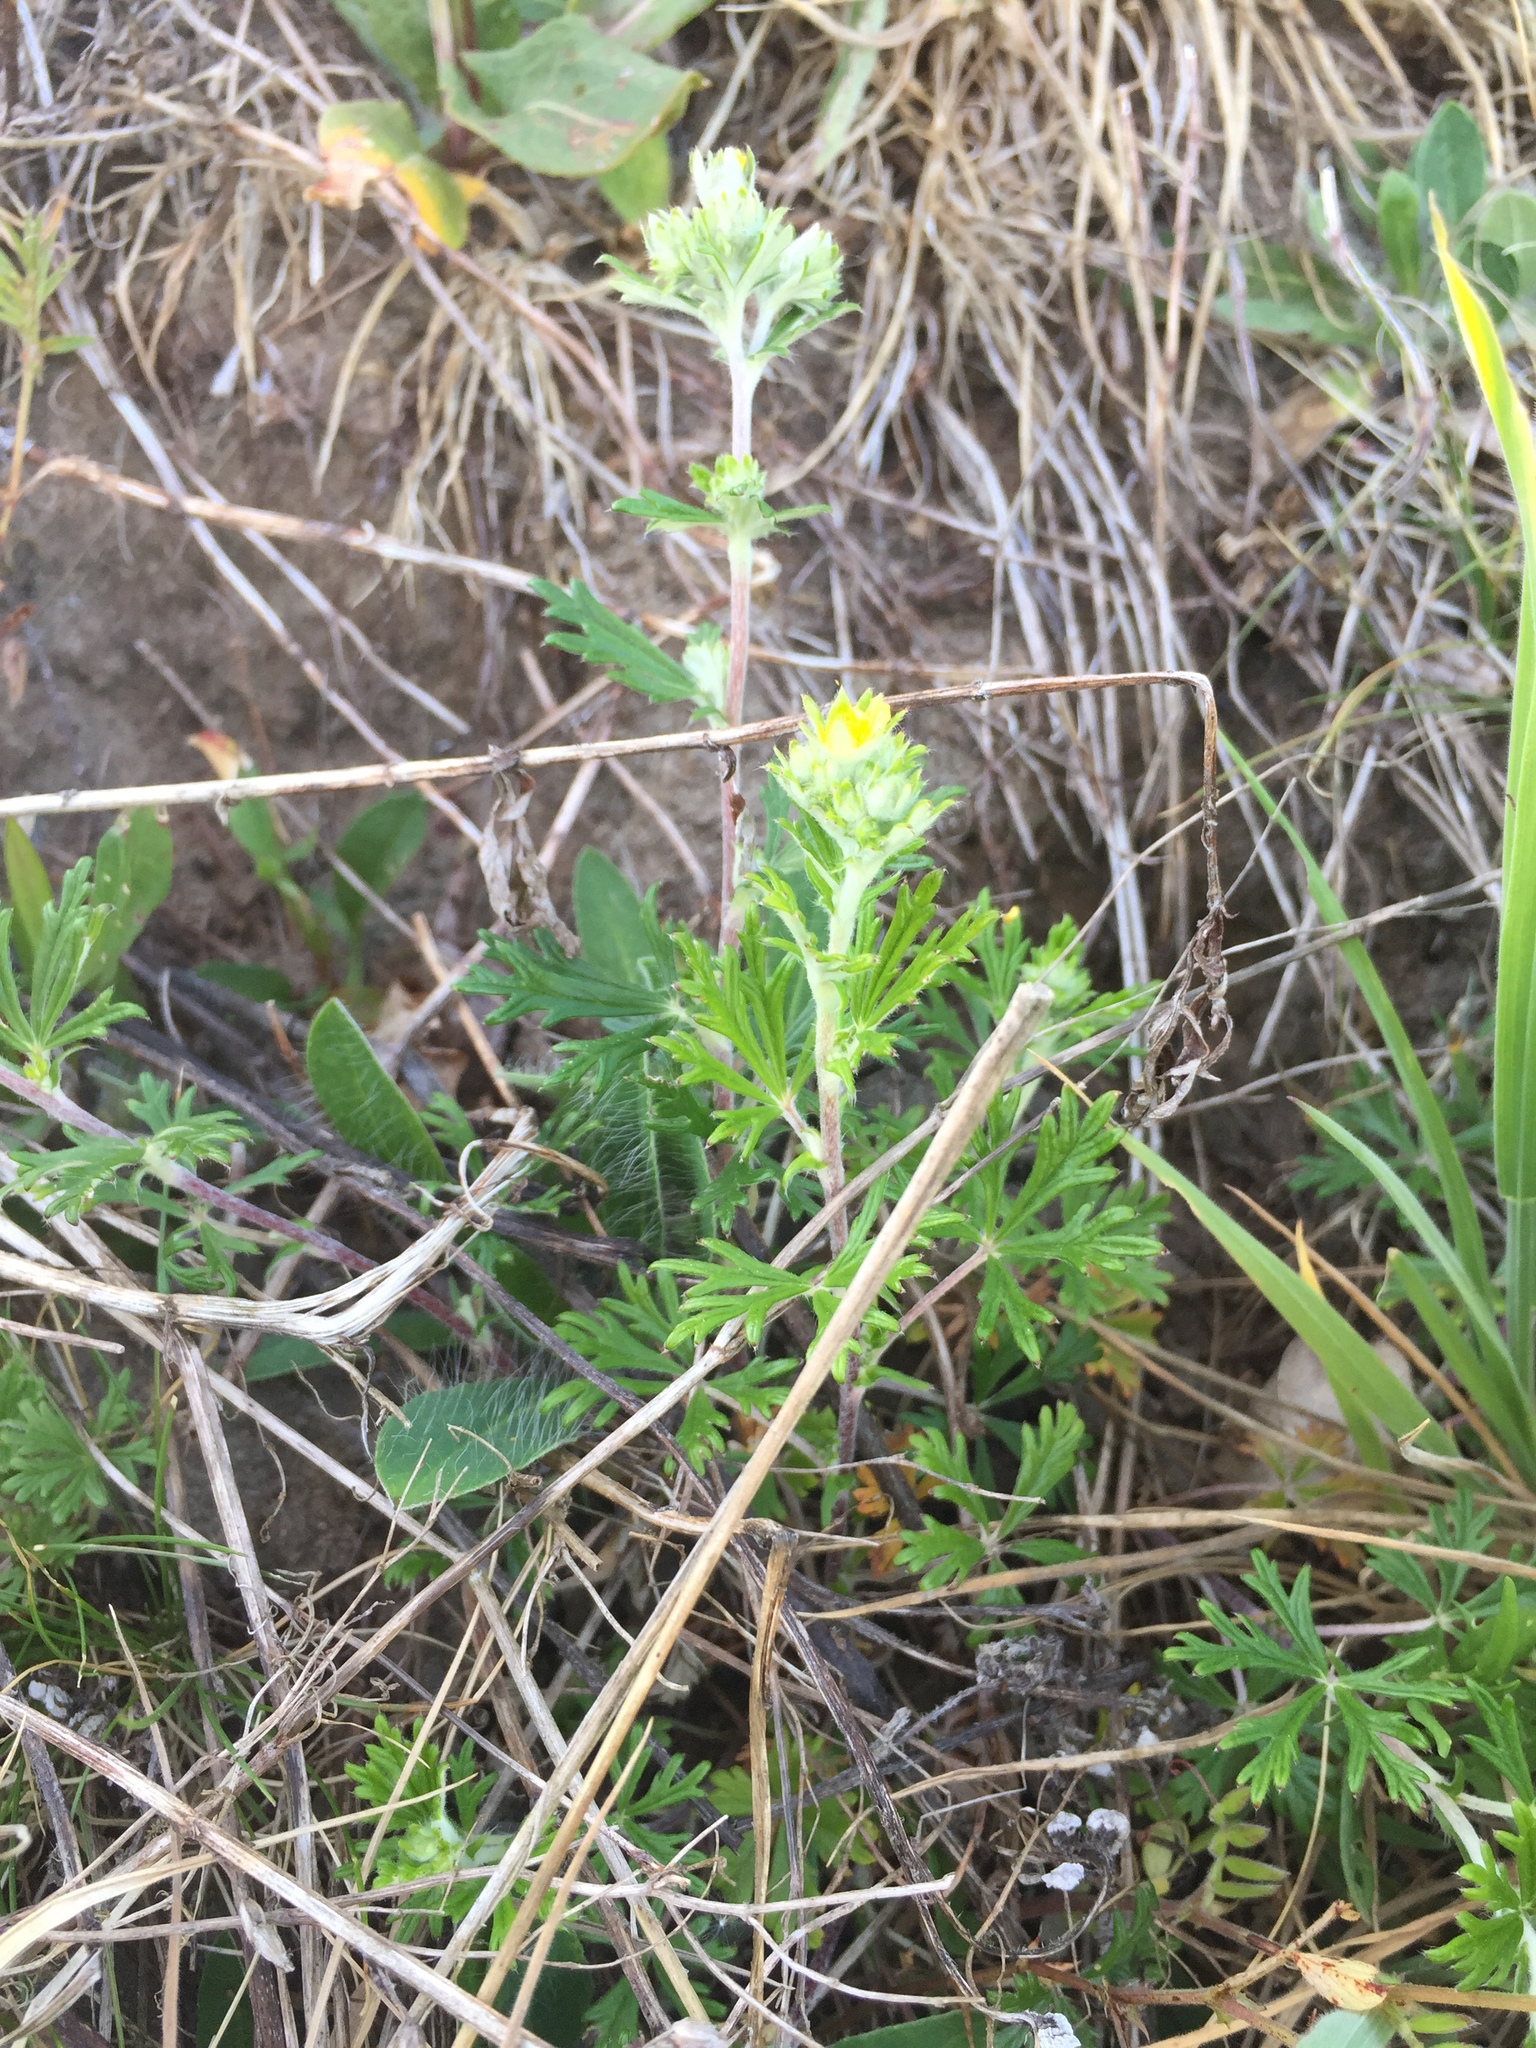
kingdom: Plantae
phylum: Tracheophyta
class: Magnoliopsida
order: Rosales
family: Rosaceae
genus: Potentilla
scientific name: Potentilla argentea
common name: Hoary cinquefoil
